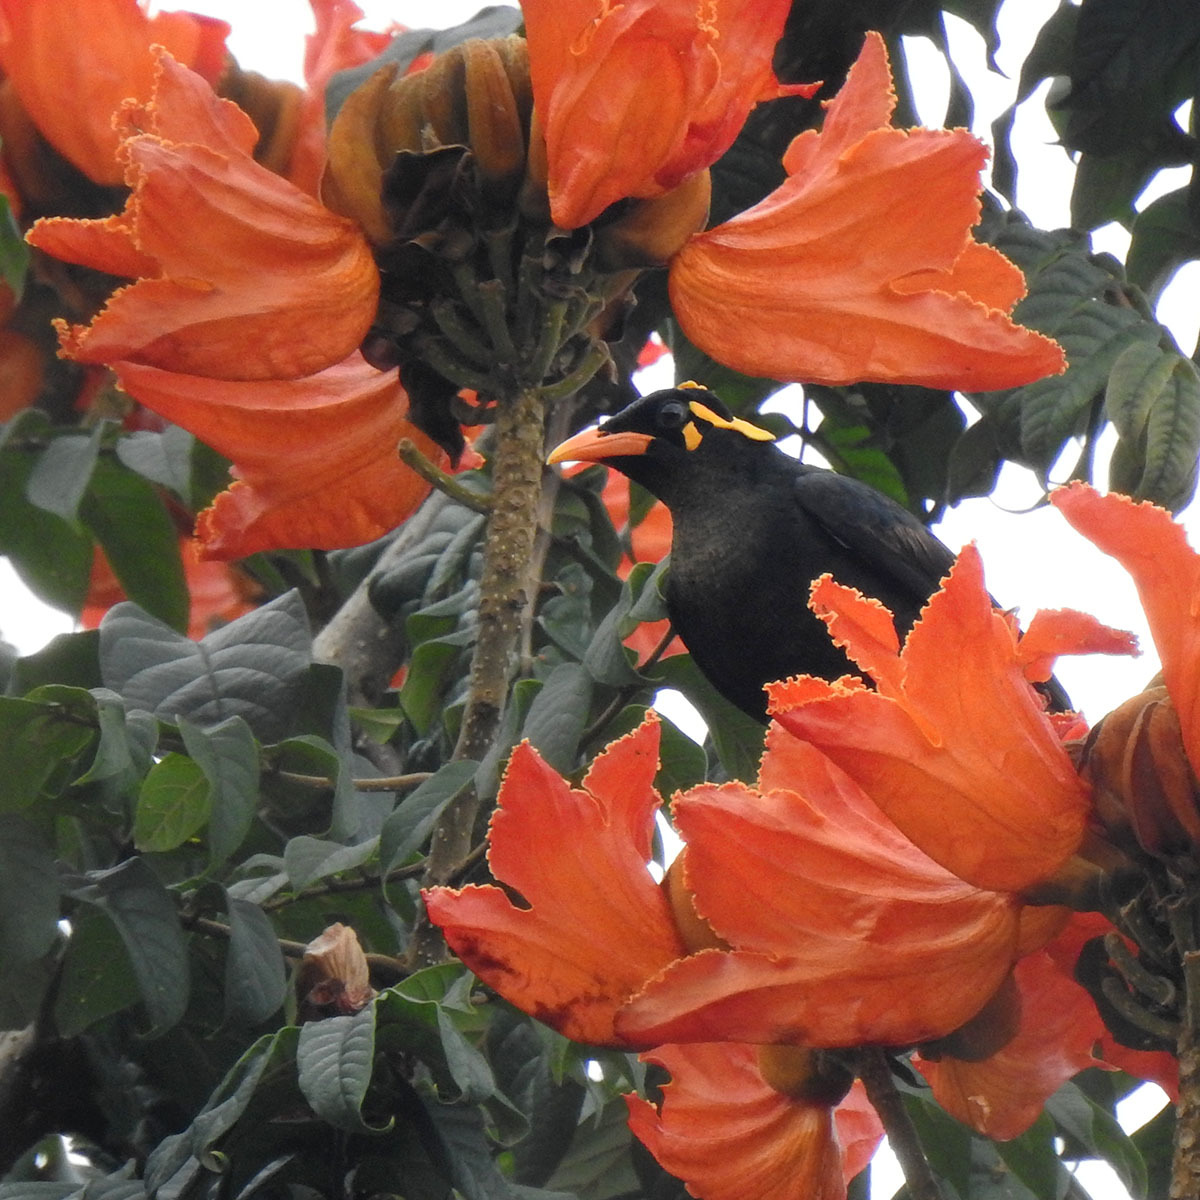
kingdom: Animalia
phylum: Chordata
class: Aves
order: Passeriformes
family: Sturnidae
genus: Gracula
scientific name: Gracula indica
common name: Southern hill myna
